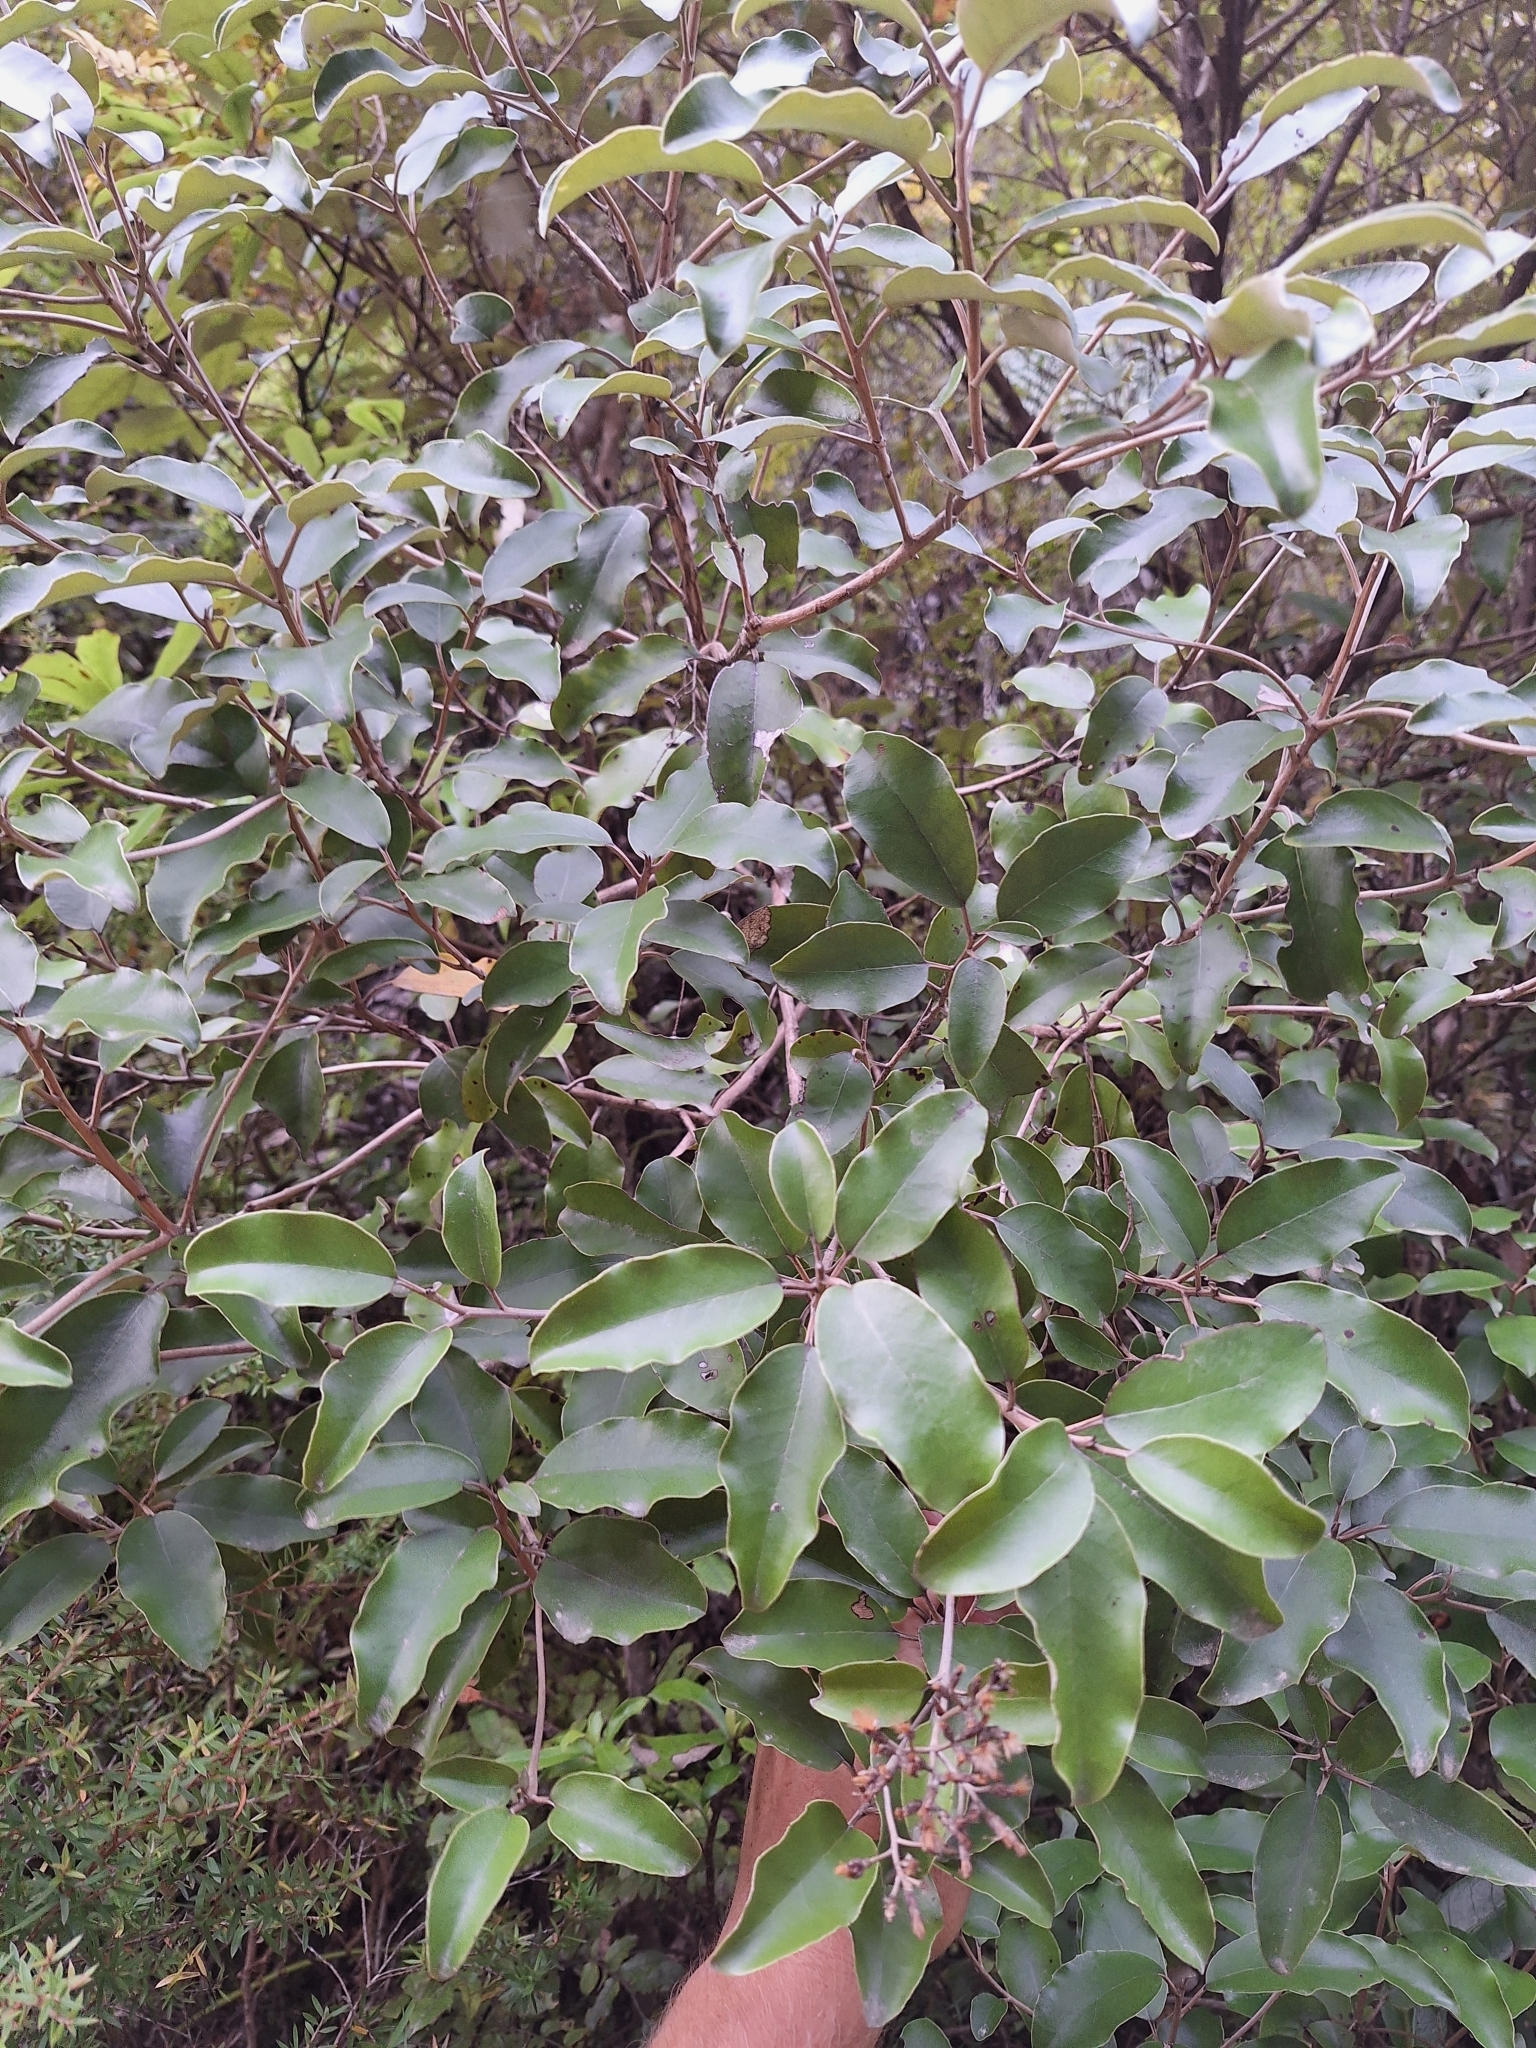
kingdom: Plantae
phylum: Tracheophyta
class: Magnoliopsida
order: Asterales
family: Asteraceae
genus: Olearia
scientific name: Olearia furfuracea
